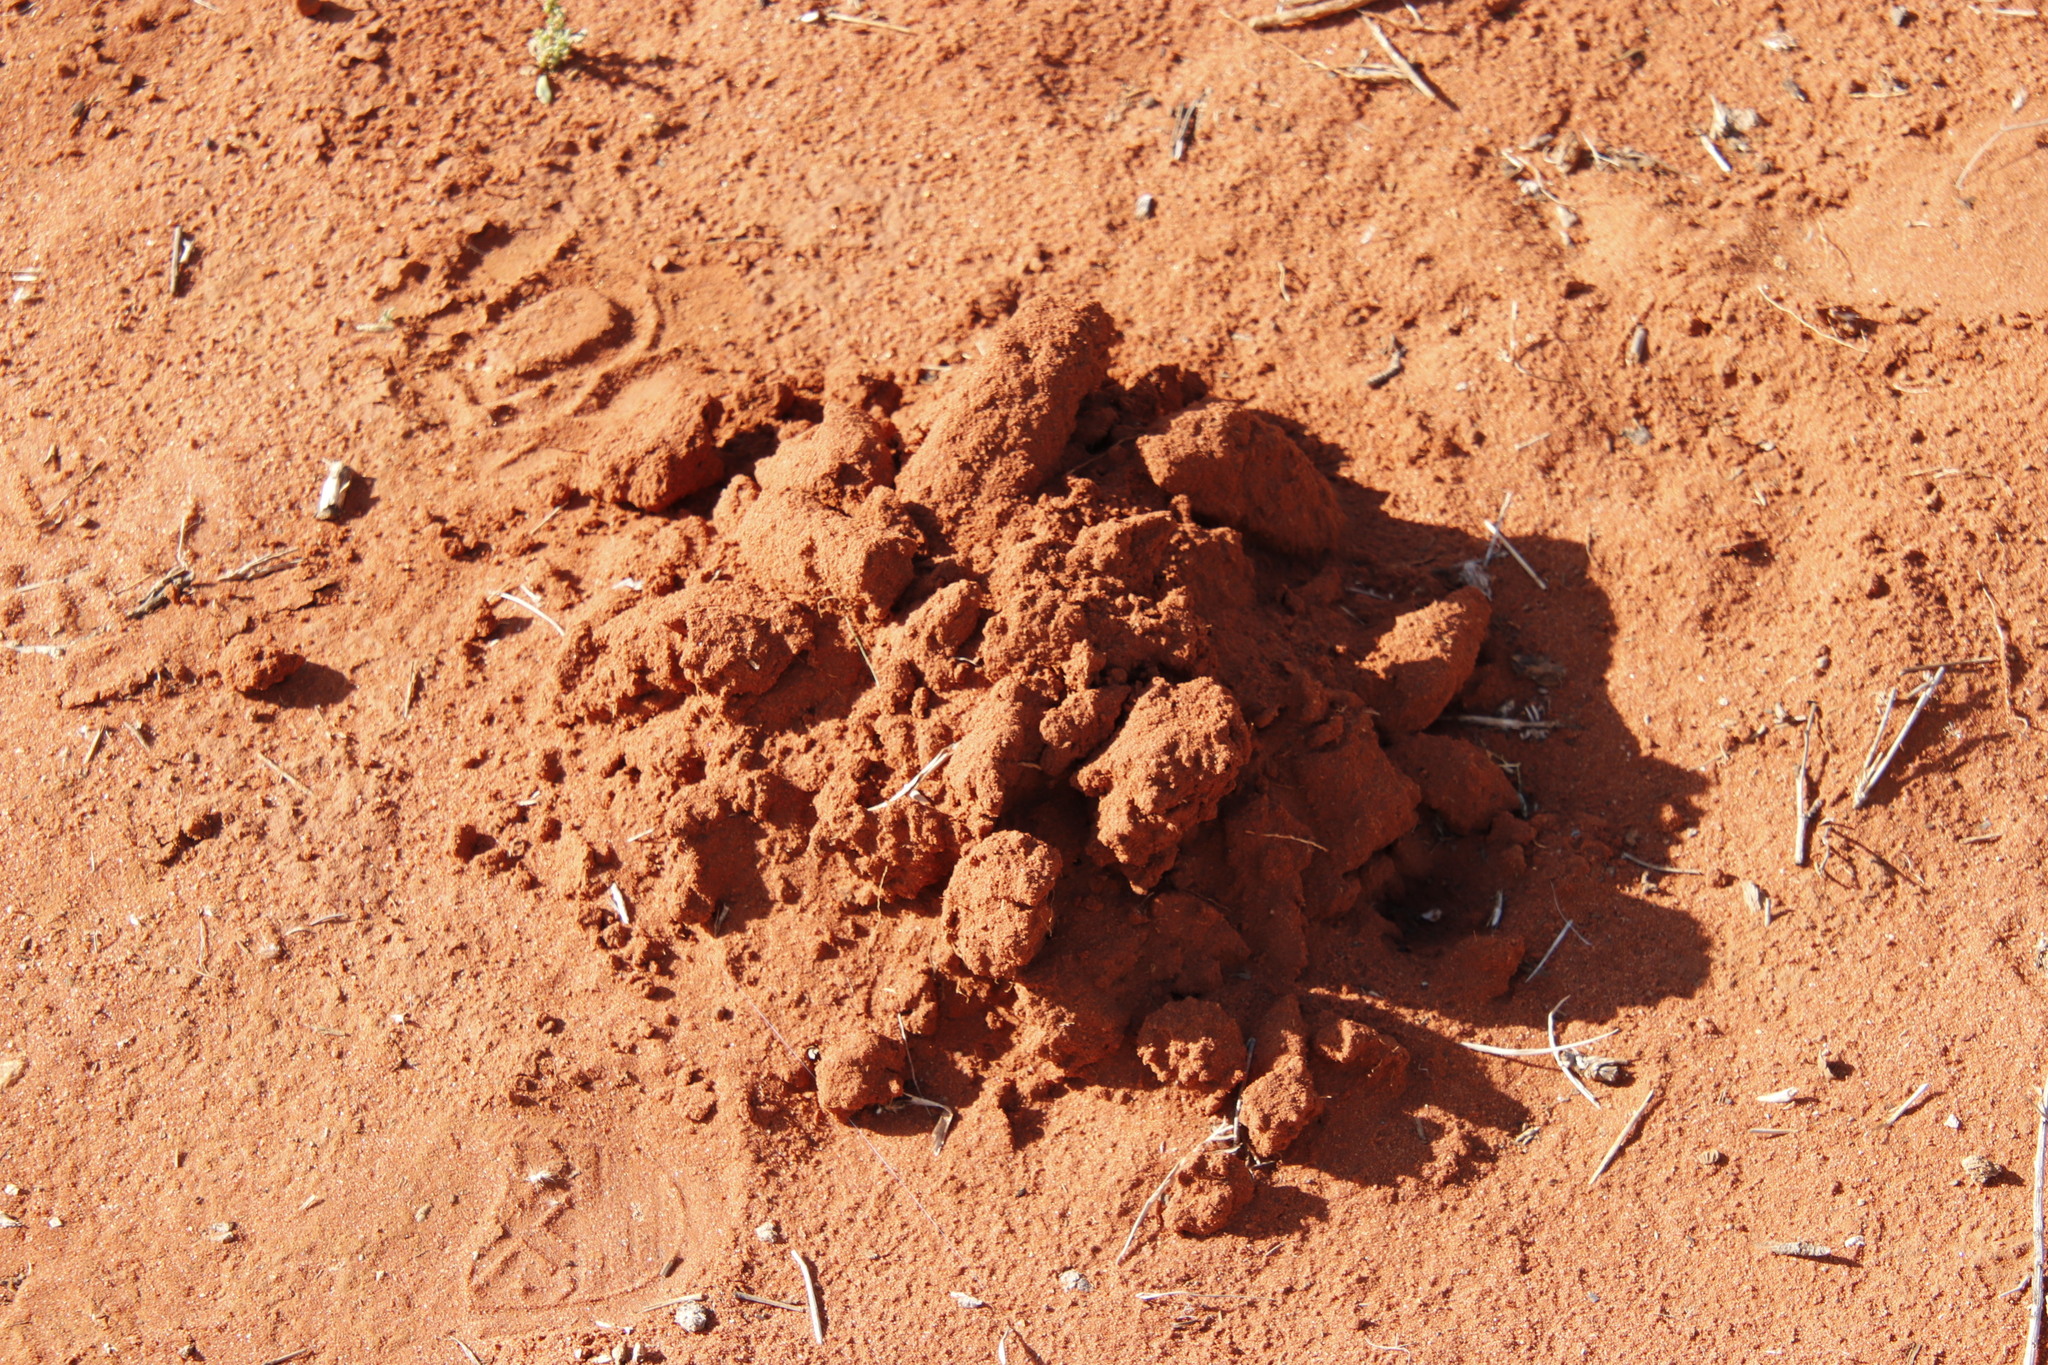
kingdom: Animalia
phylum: Chordata
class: Mammalia
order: Rodentia
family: Bathyergidae
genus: Cryptomys
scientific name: Cryptomys hottentotus
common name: Southern african mole-rat
